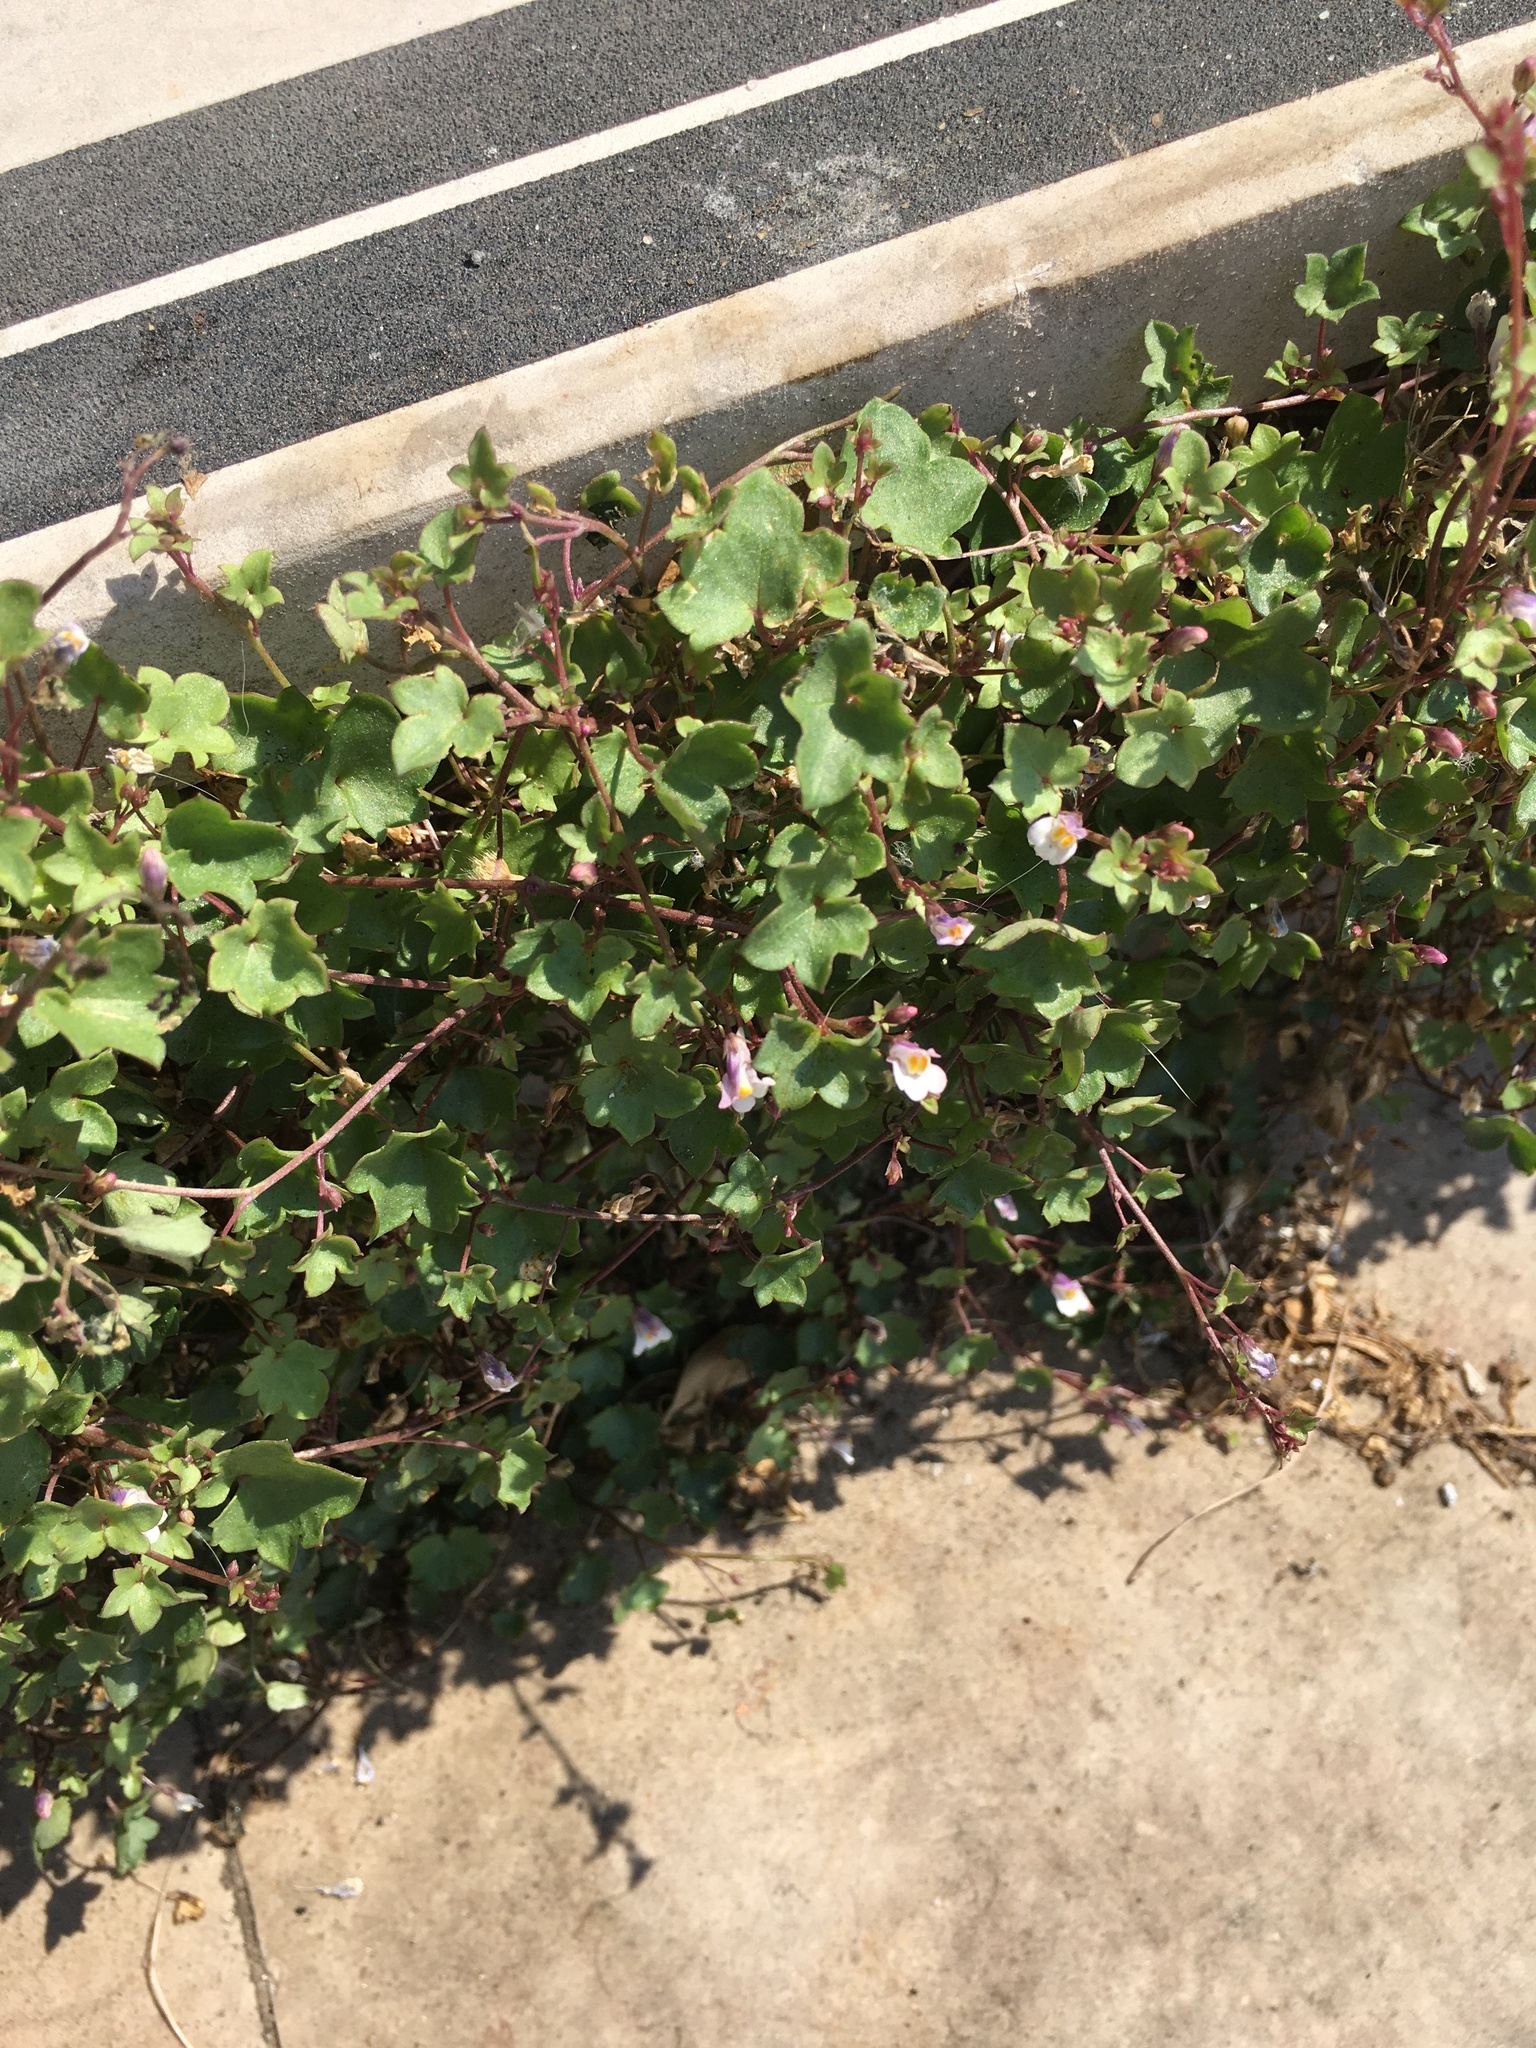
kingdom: Plantae
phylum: Tracheophyta
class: Magnoliopsida
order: Lamiales
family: Plantaginaceae
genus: Cymbalaria
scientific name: Cymbalaria muralis
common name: Ivy-leaved toadflax
